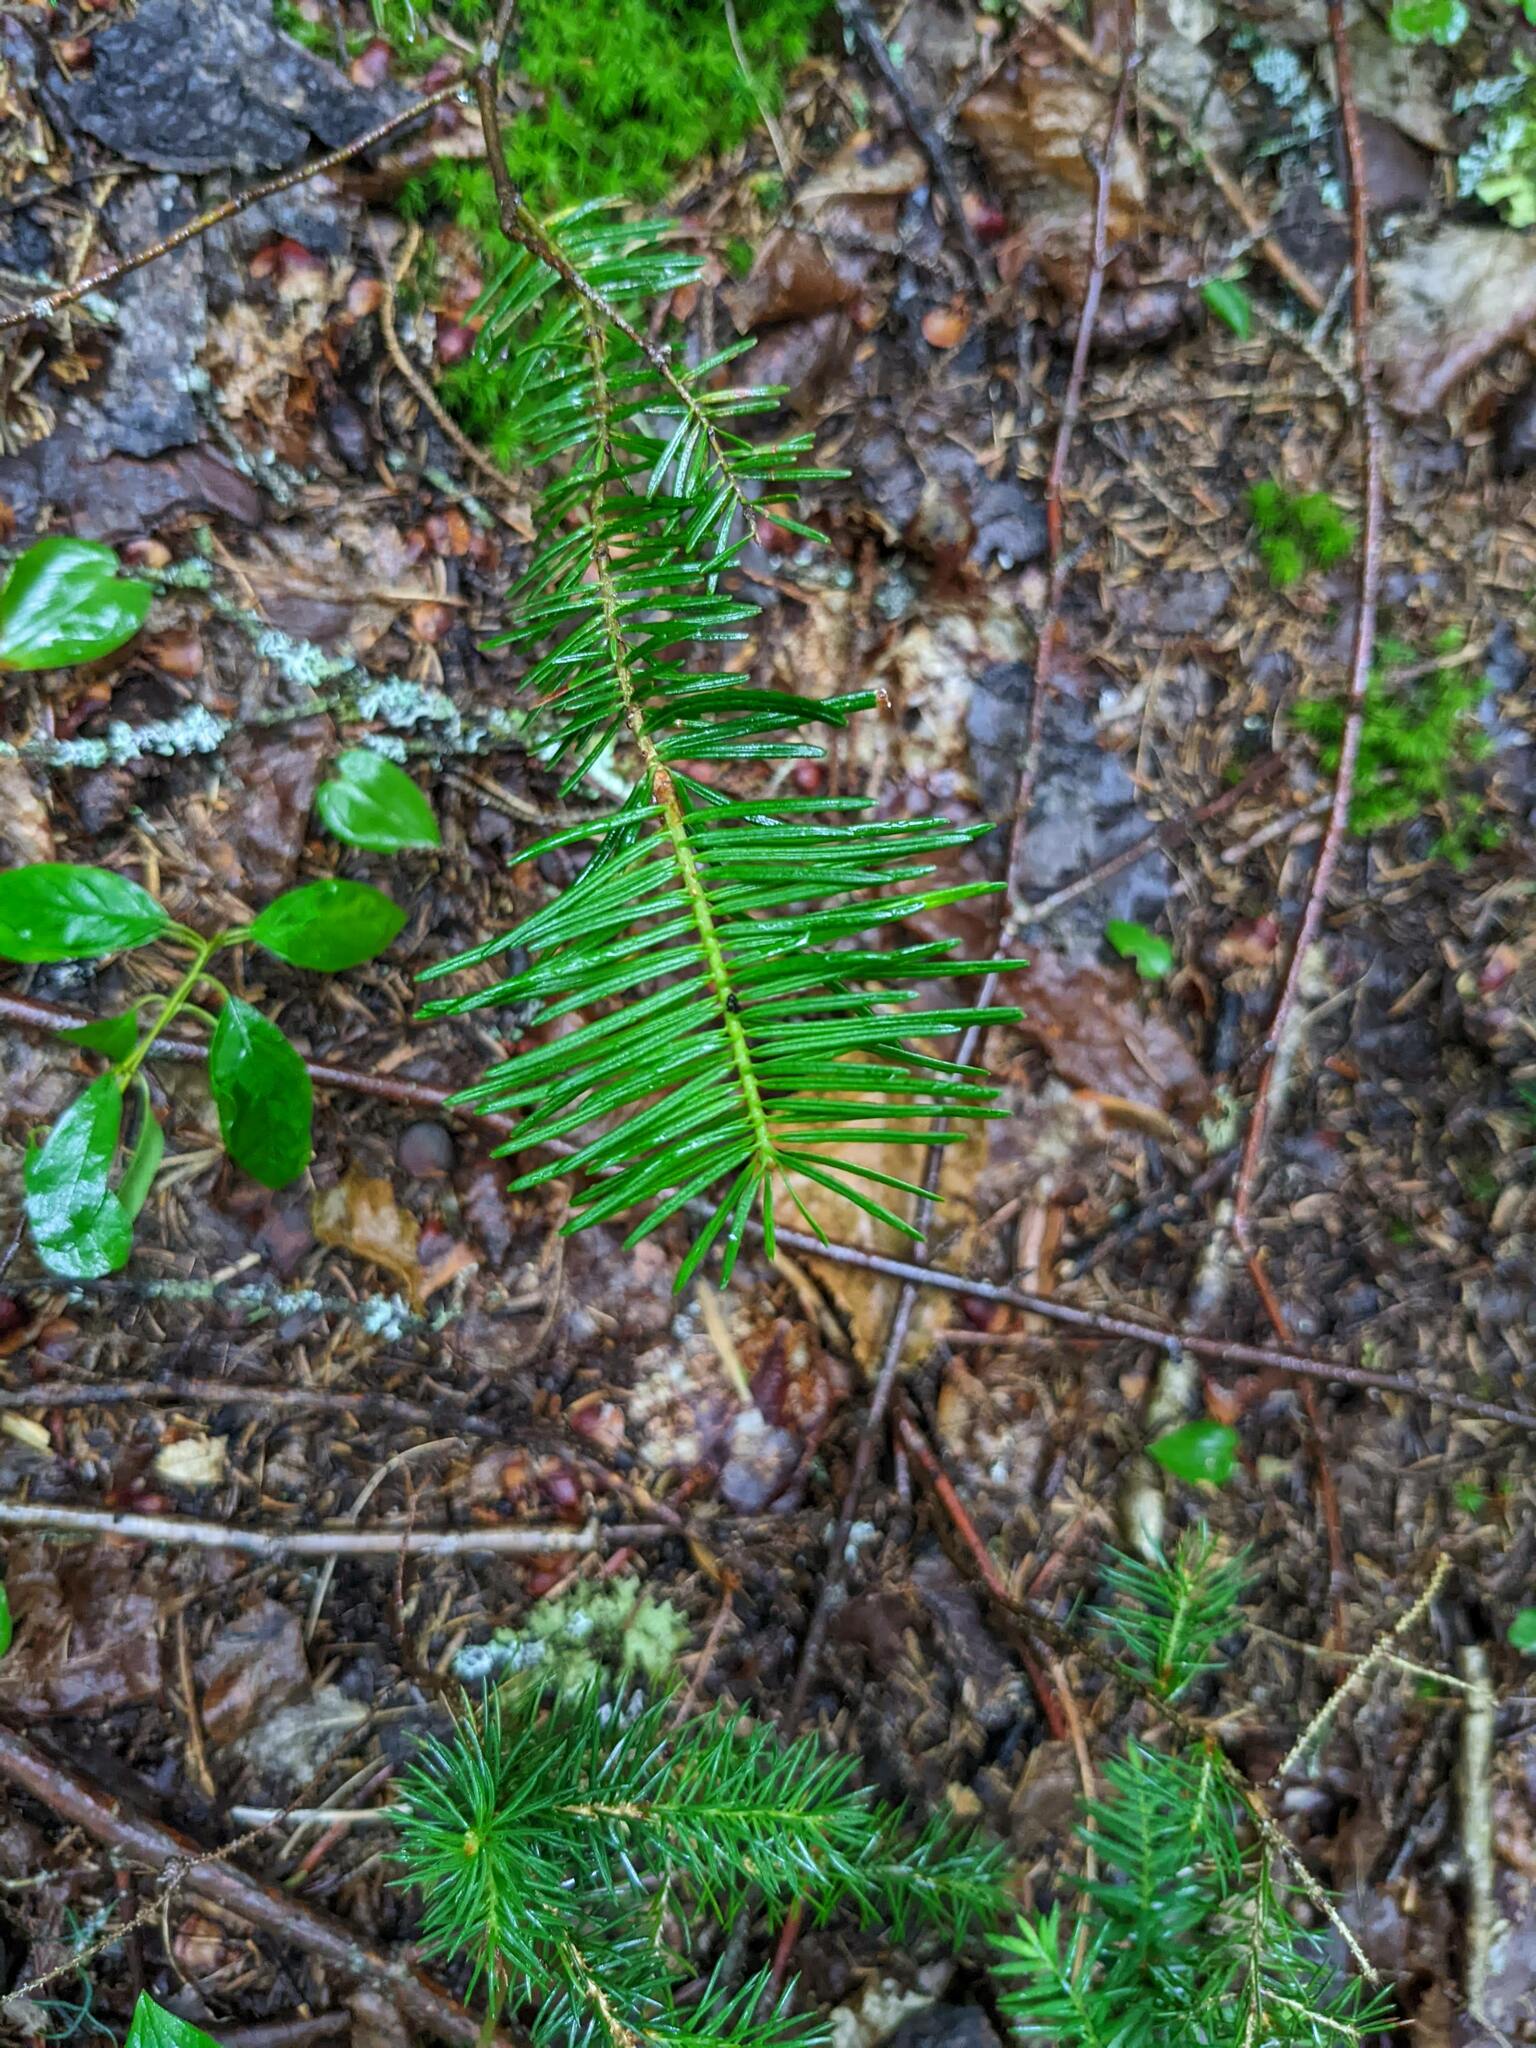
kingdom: Plantae
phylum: Tracheophyta
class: Pinopsida
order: Pinales
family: Pinaceae
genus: Abies
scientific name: Abies balsamea
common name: Balsam fir
